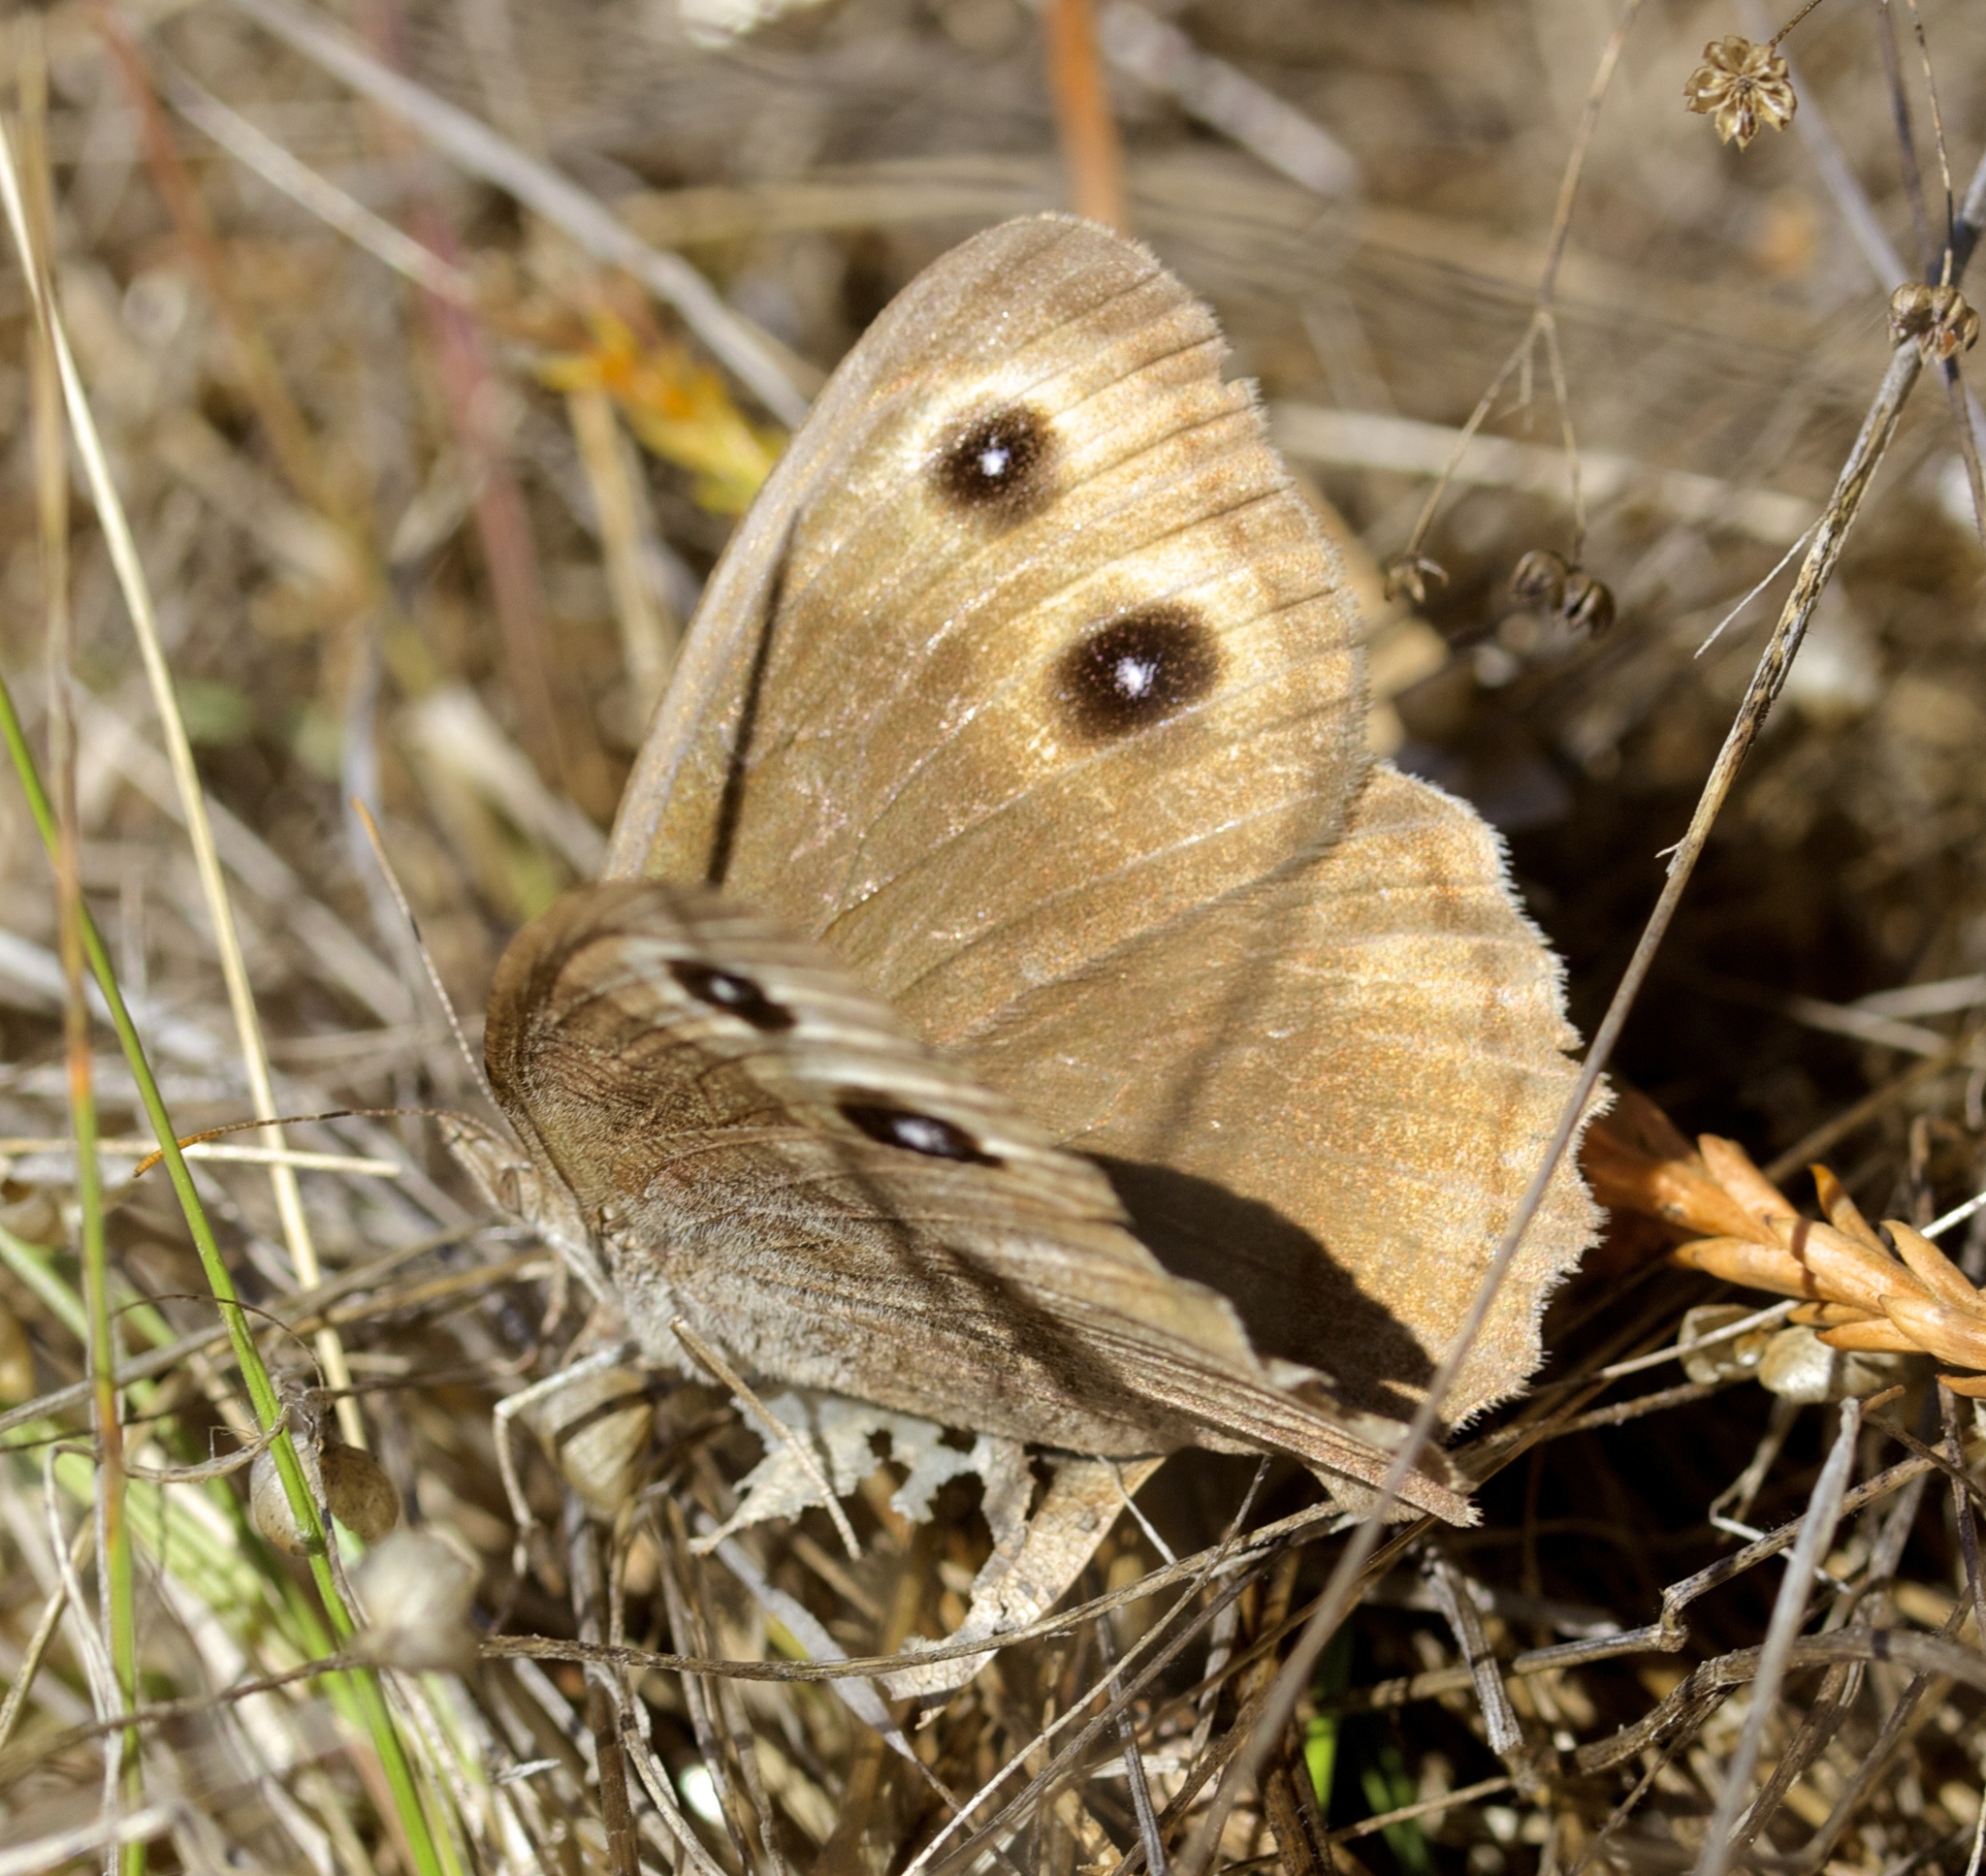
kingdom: Animalia
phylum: Arthropoda
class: Insecta
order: Lepidoptera
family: Nymphalidae
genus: Cercyonis
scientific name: Cercyonis pegala
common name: Common wood-nymph
